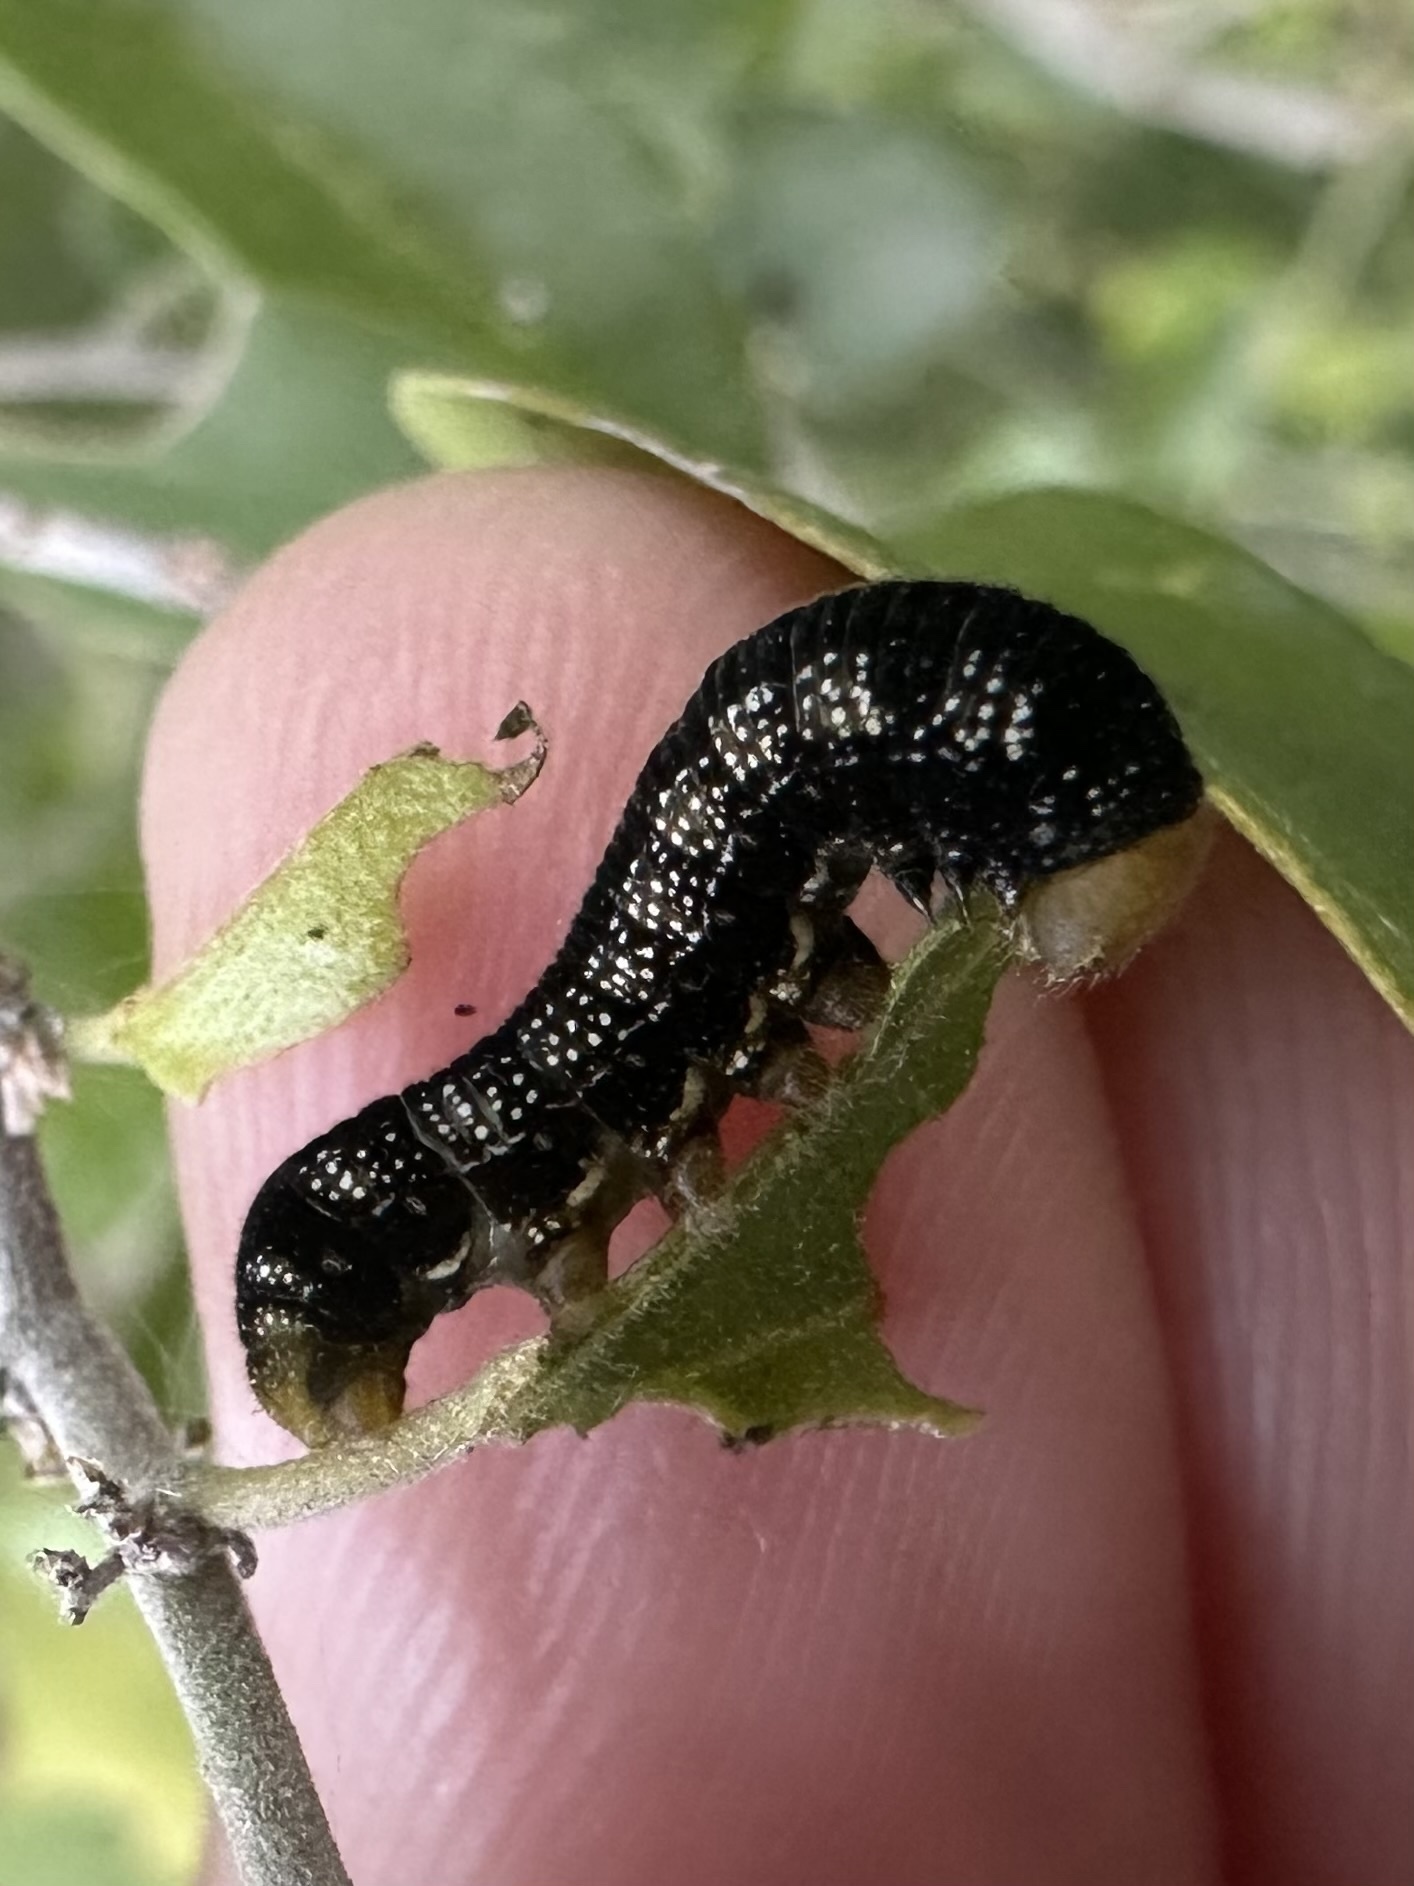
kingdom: Animalia
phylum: Arthropoda
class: Insecta
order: Lepidoptera
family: Nymphalidae
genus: Libytheana
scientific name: Libytheana carinenta
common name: American snout
